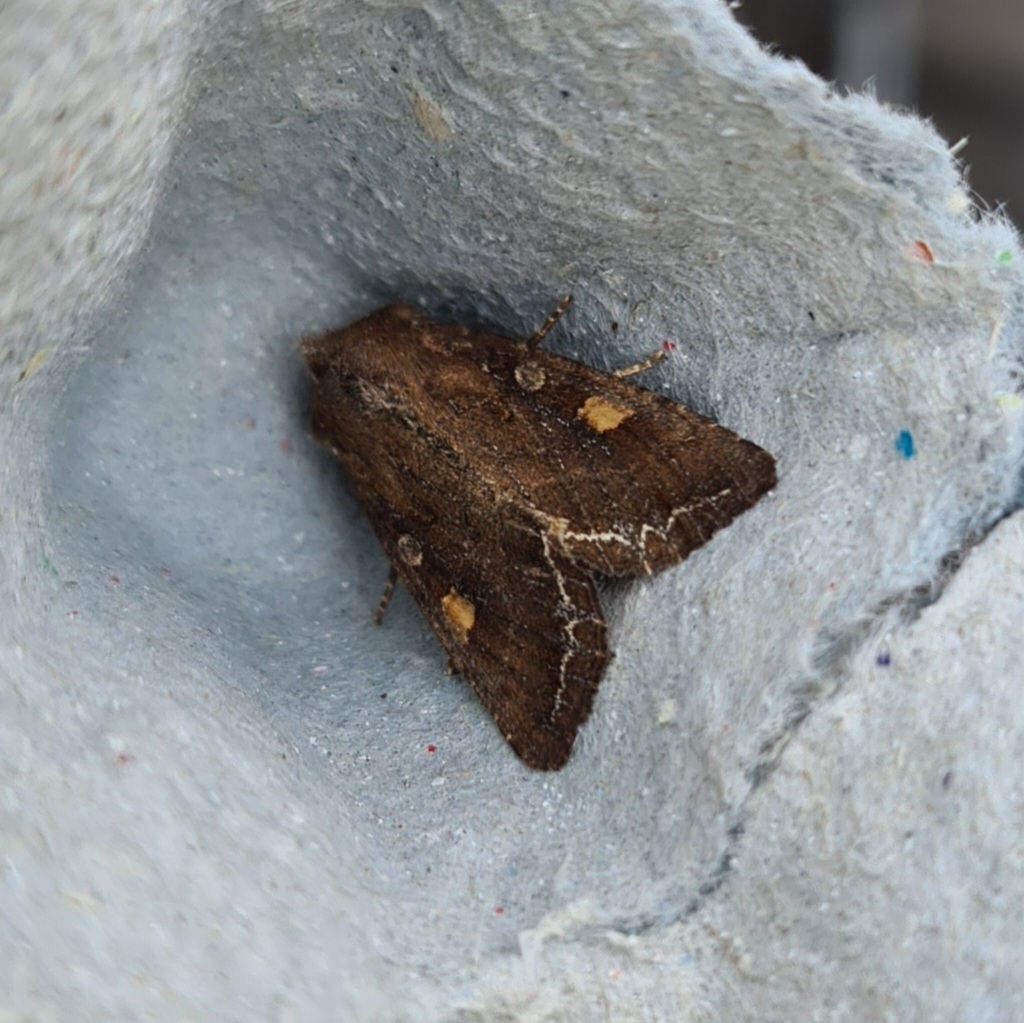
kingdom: Animalia
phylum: Arthropoda
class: Insecta
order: Lepidoptera
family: Noctuidae
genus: Lacanobia
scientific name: Lacanobia oleracea
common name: Bright-line brown-eye
